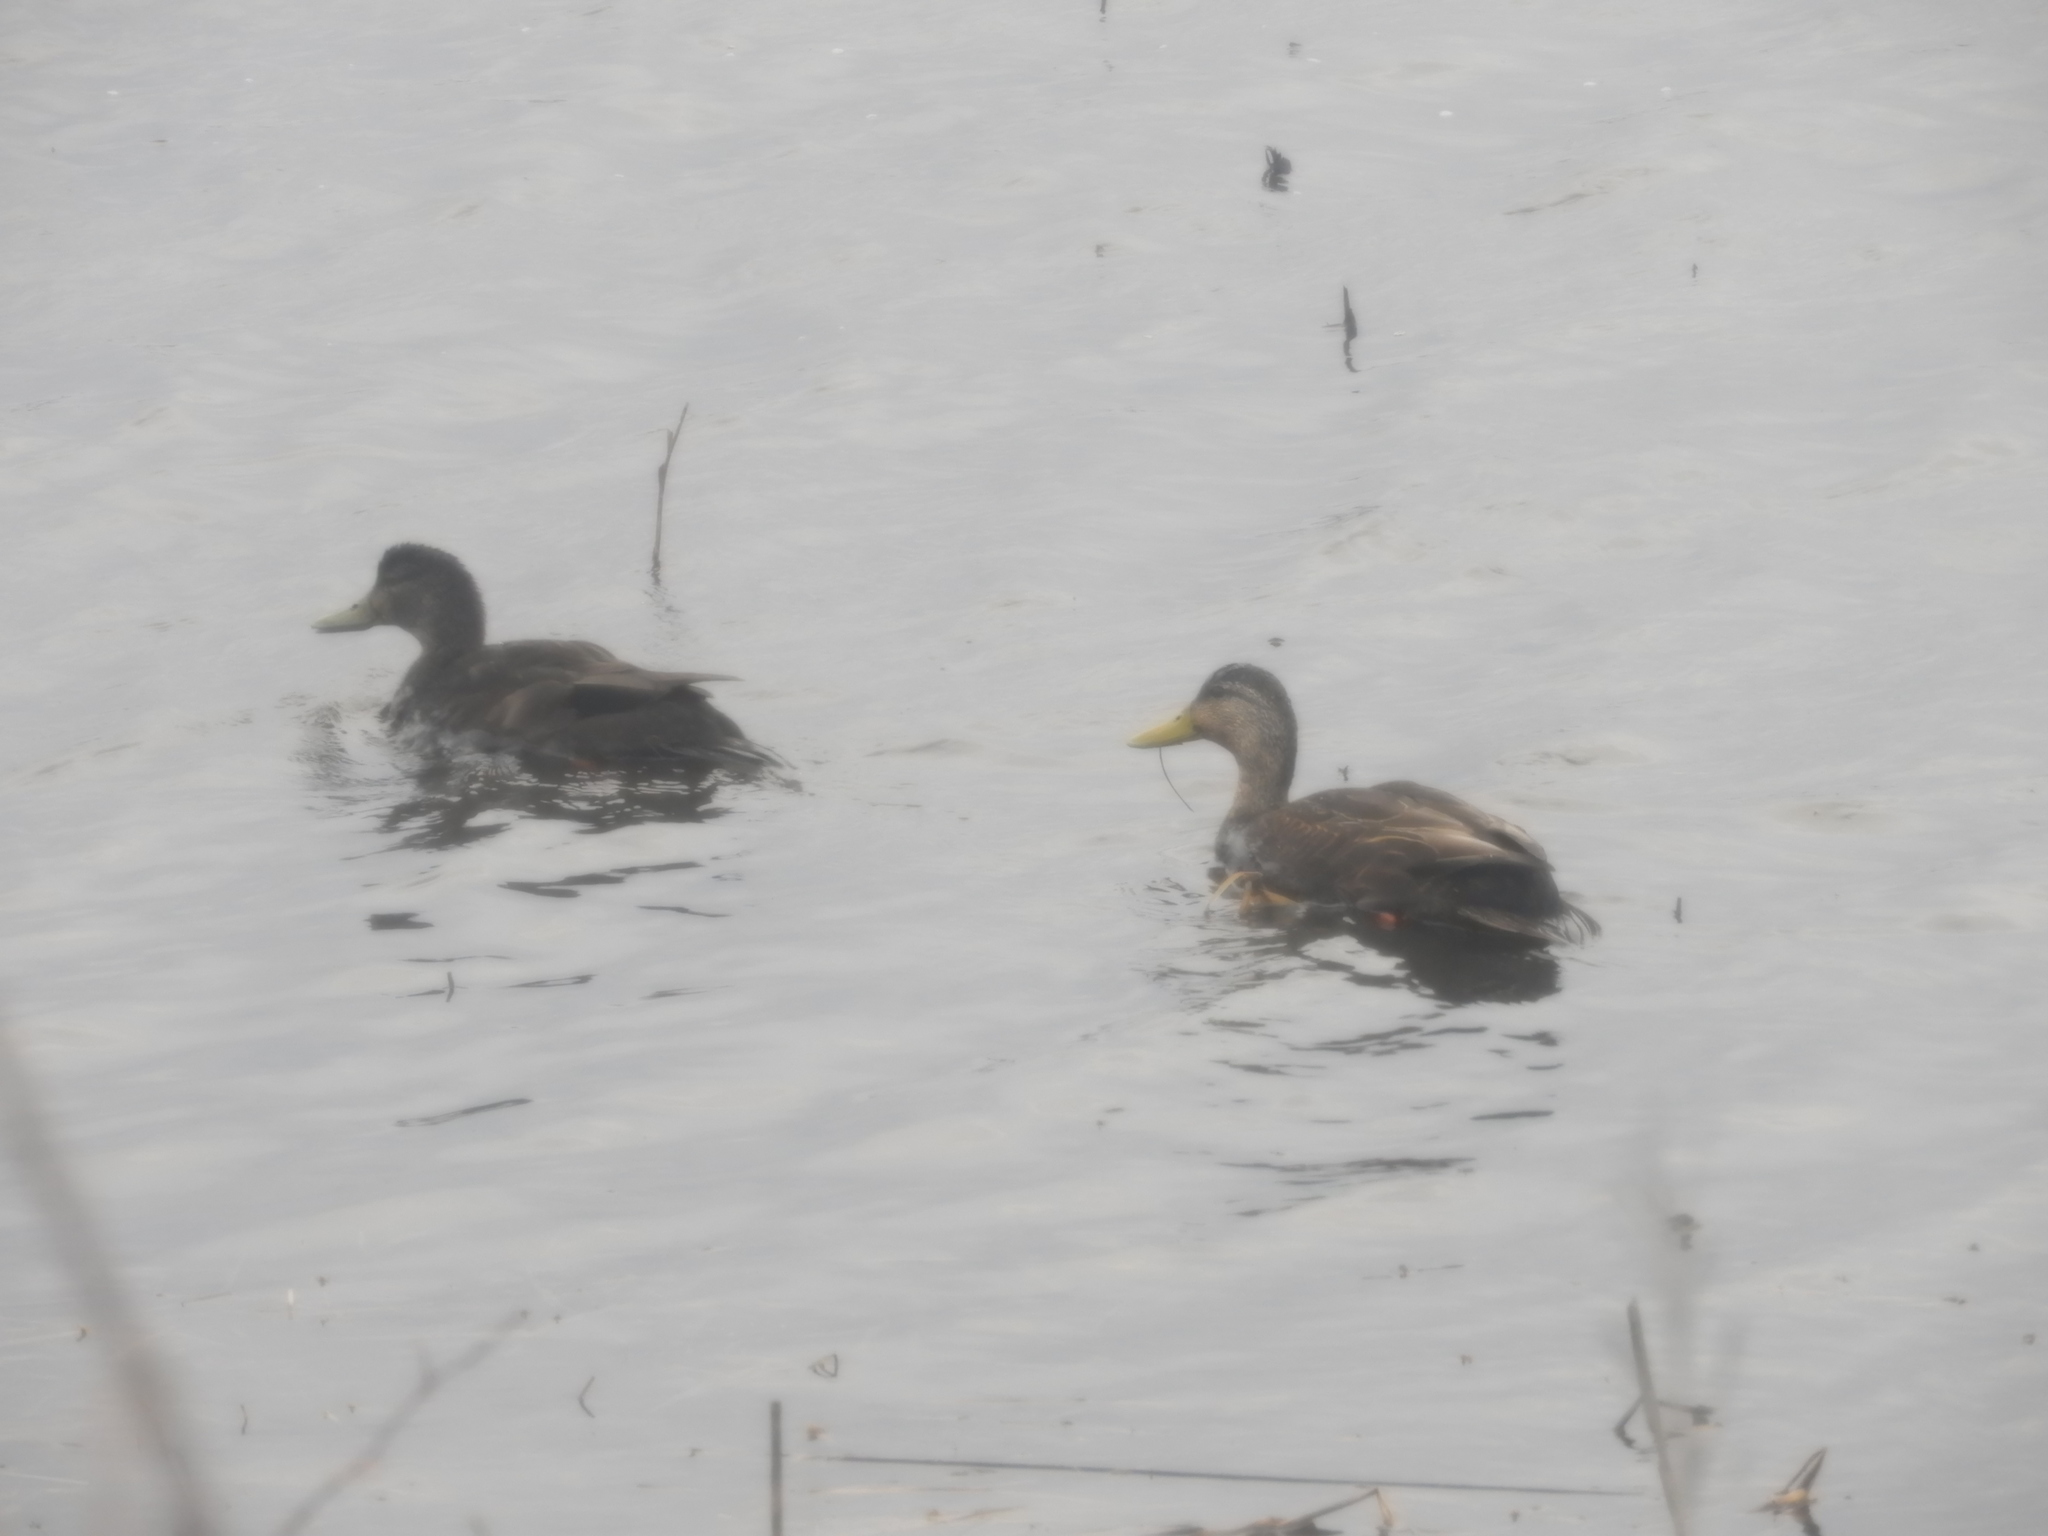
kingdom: Animalia
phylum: Chordata
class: Aves
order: Anseriformes
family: Anatidae
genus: Anas
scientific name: Anas rubripes
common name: American black duck
